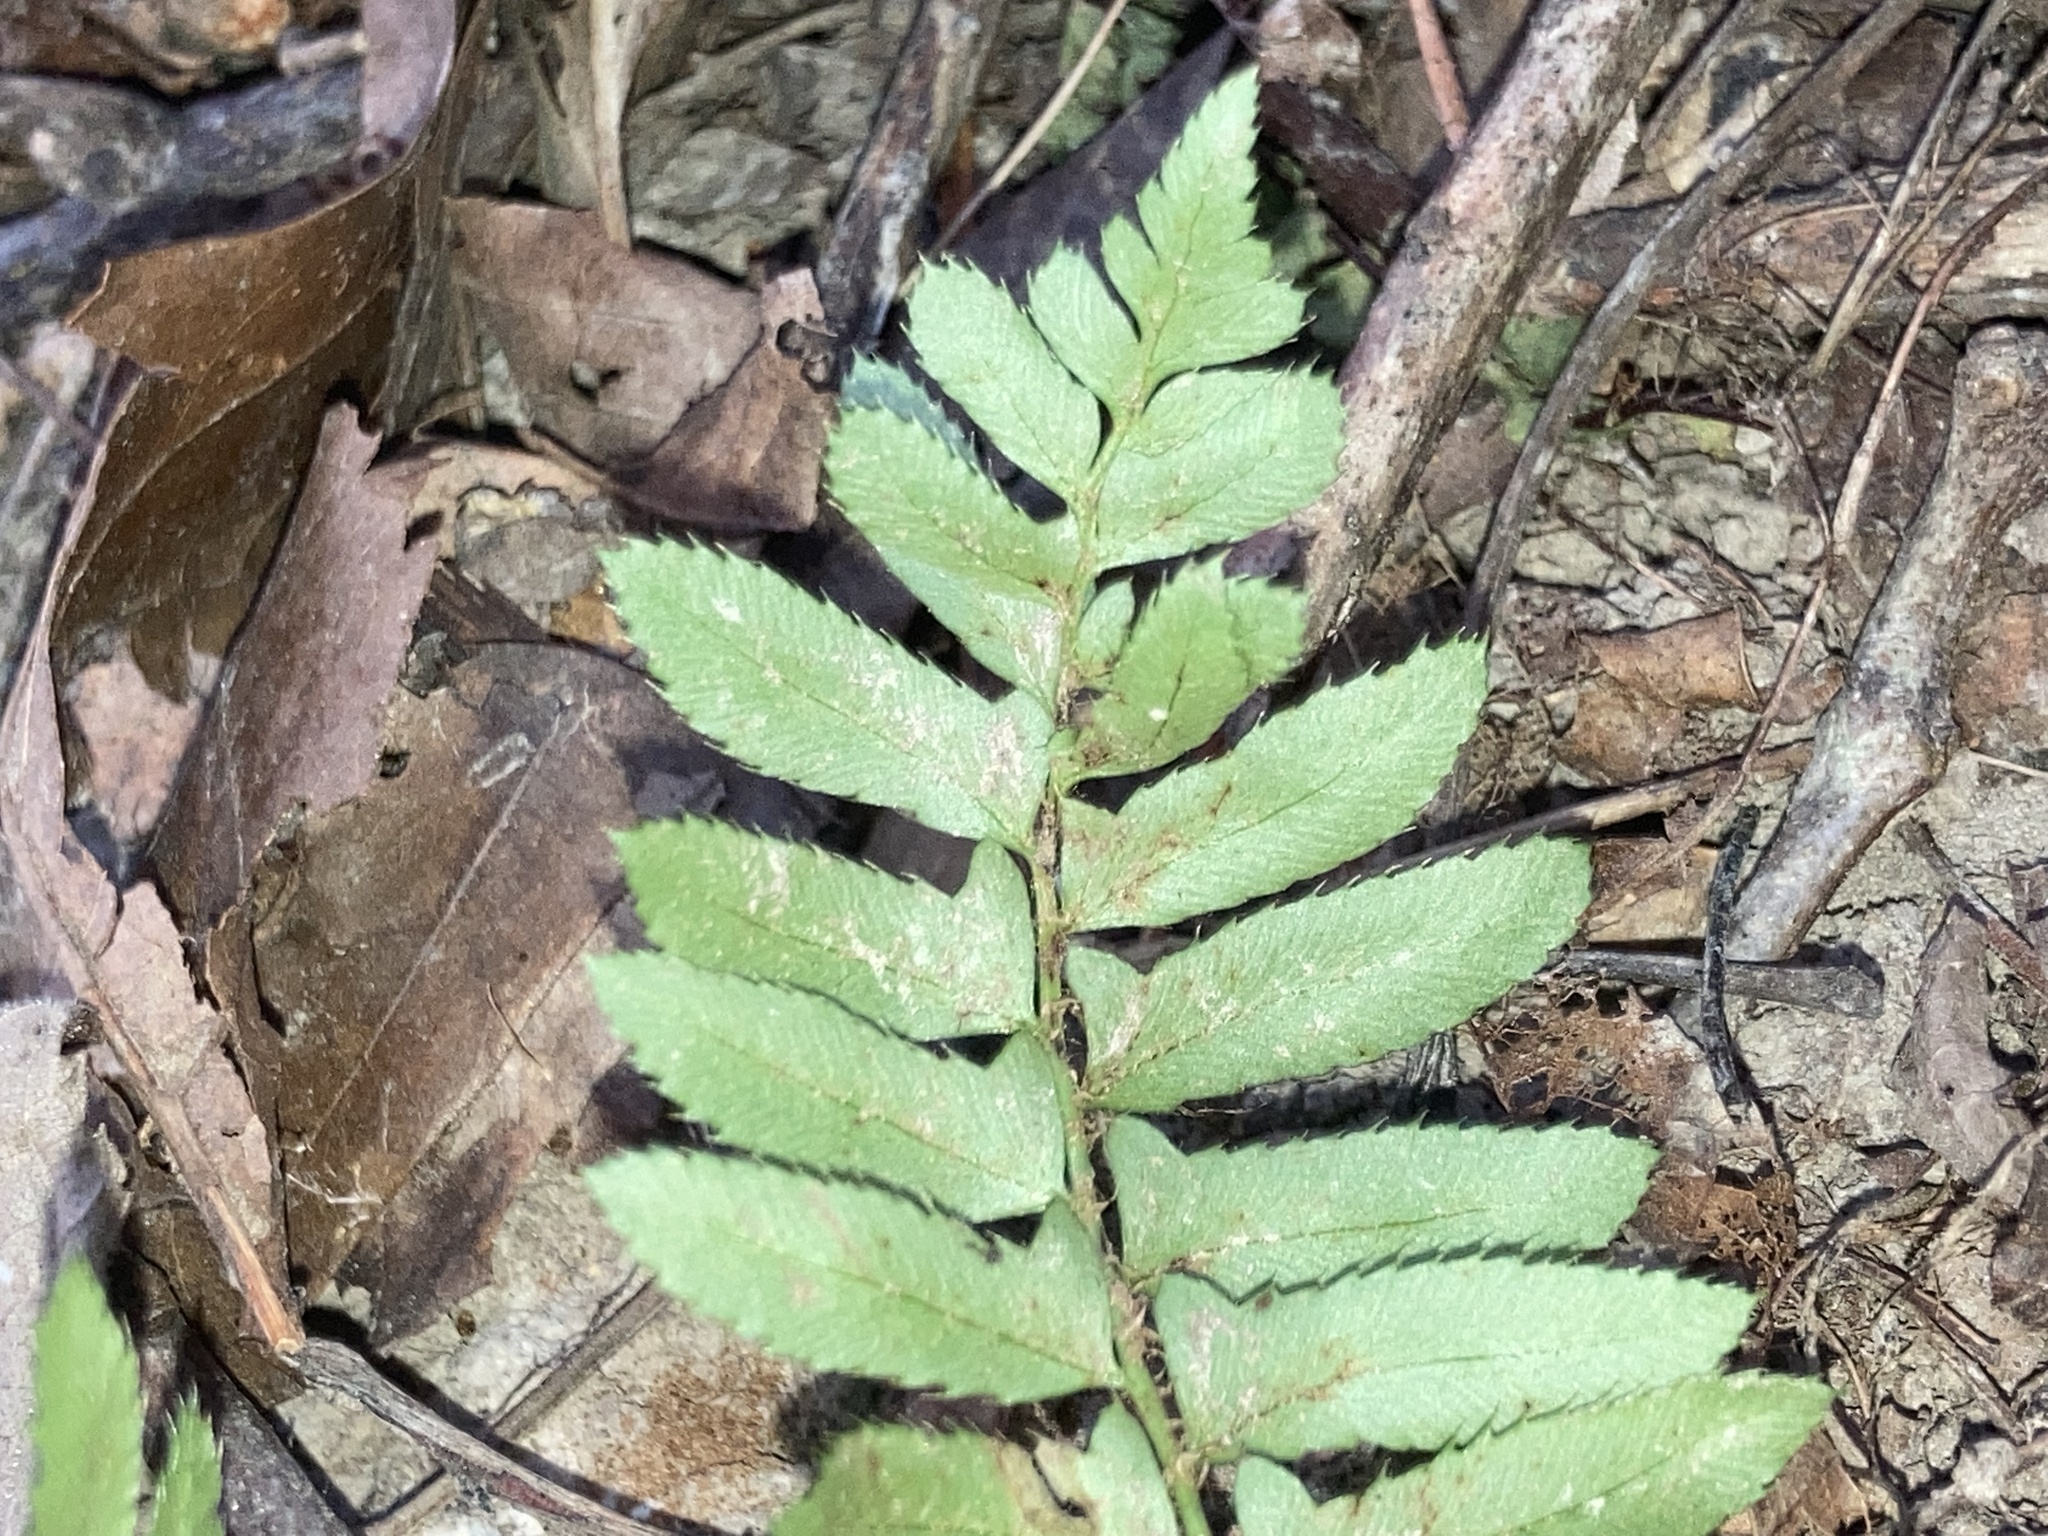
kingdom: Plantae
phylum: Tracheophyta
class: Polypodiopsida
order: Polypodiales
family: Dryopteridaceae
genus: Polystichum
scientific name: Polystichum acrostichoides
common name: Christmas fern
